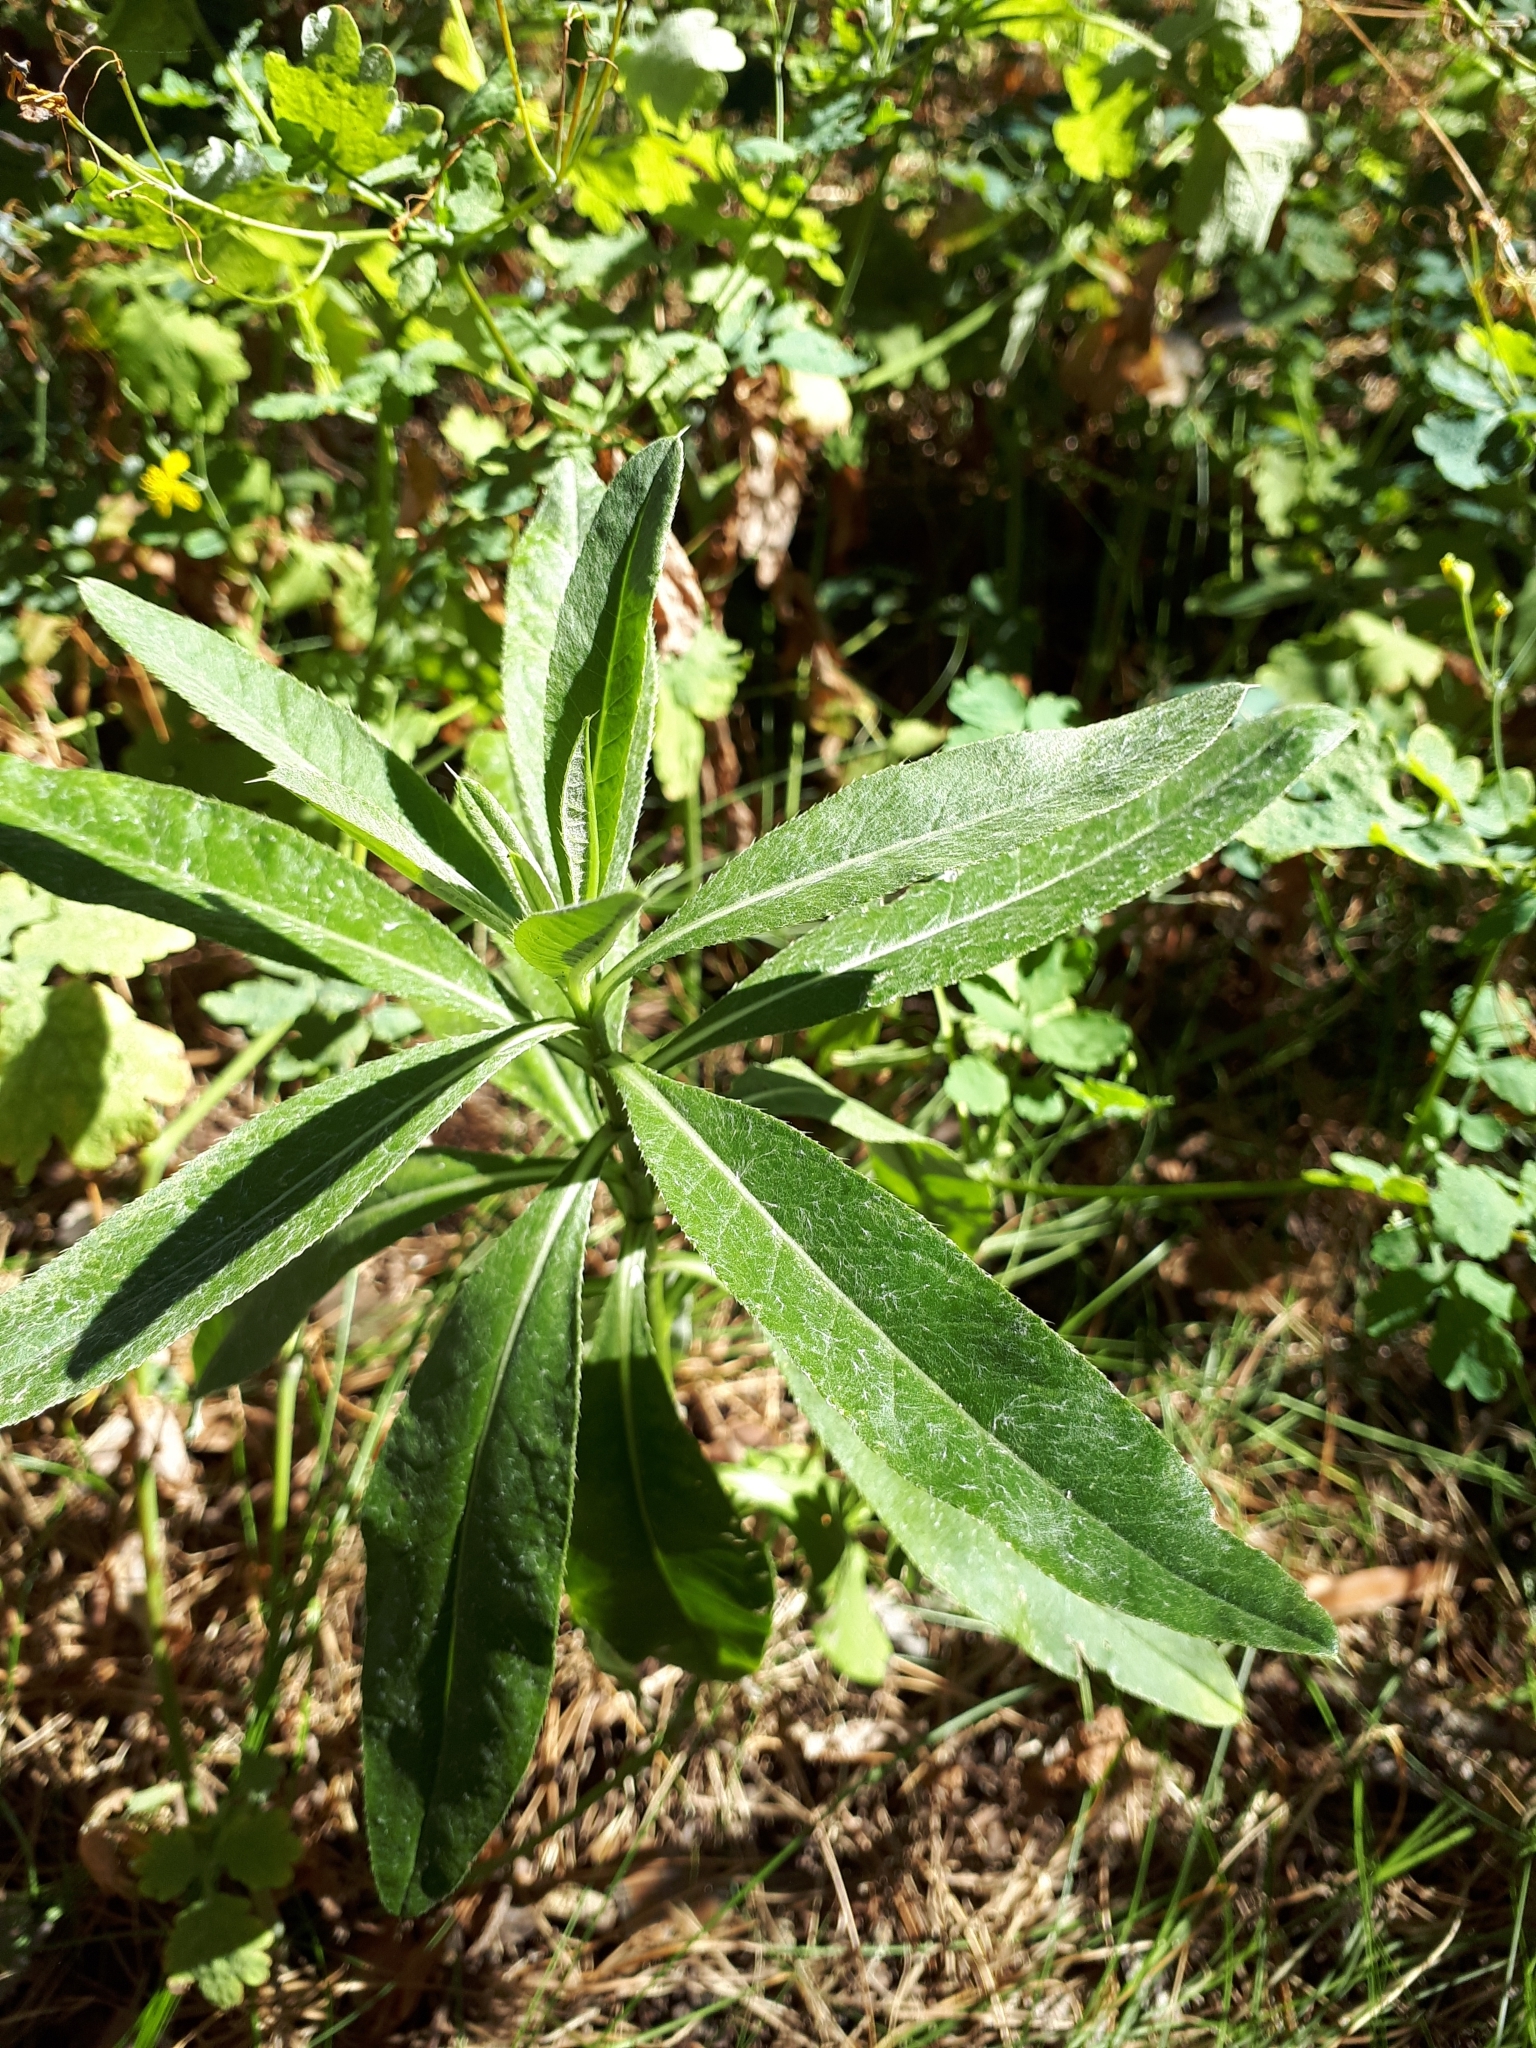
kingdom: Plantae
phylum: Tracheophyta
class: Magnoliopsida
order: Asterales
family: Asteraceae
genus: Cirsium
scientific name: Cirsium arvense
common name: Creeping thistle
